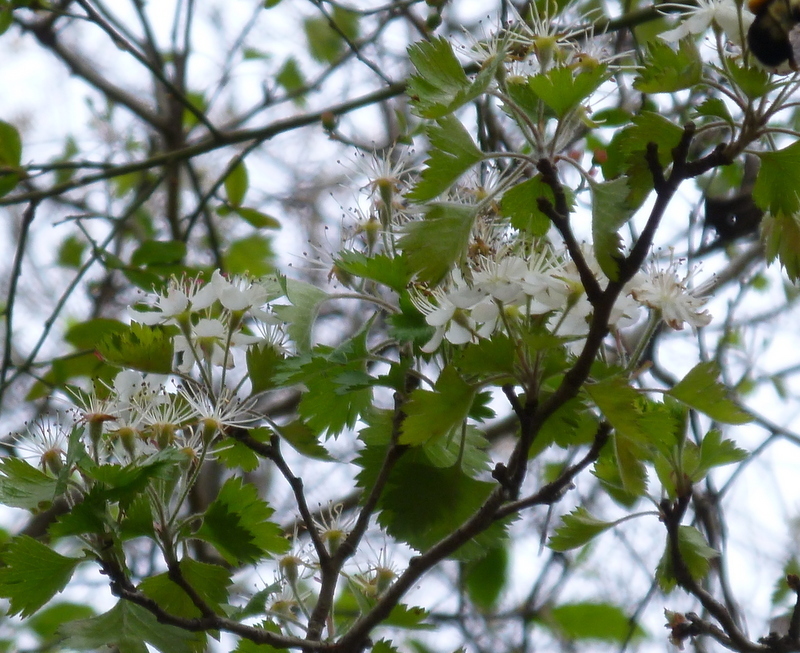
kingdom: Plantae
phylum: Tracheophyta
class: Magnoliopsida
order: Rosales
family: Rosaceae
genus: Crataegus
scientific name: Crataegus marshallii
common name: Parsley-hawthorn
